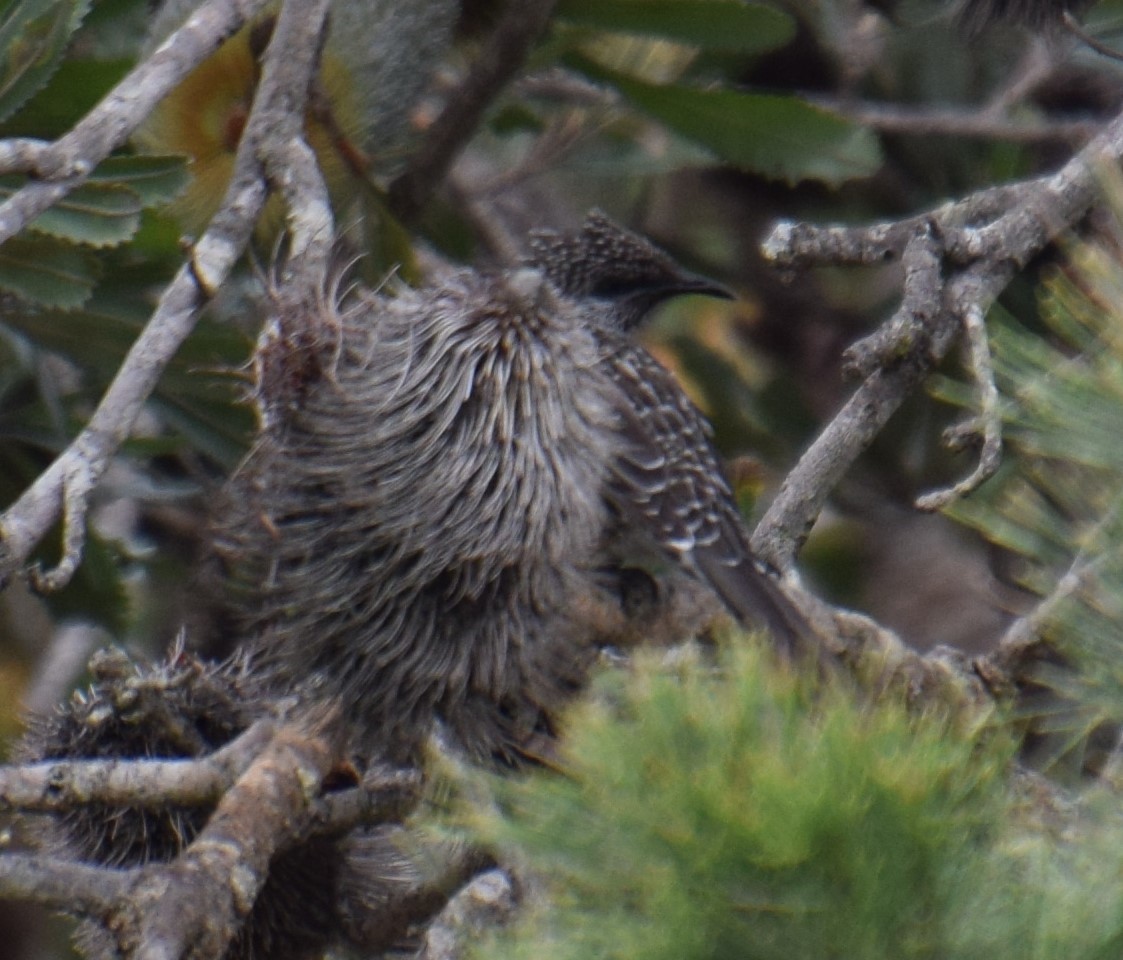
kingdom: Animalia
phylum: Chordata
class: Aves
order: Passeriformes
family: Meliphagidae
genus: Anthochaera
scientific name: Anthochaera chrysoptera
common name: Little wattlebird
